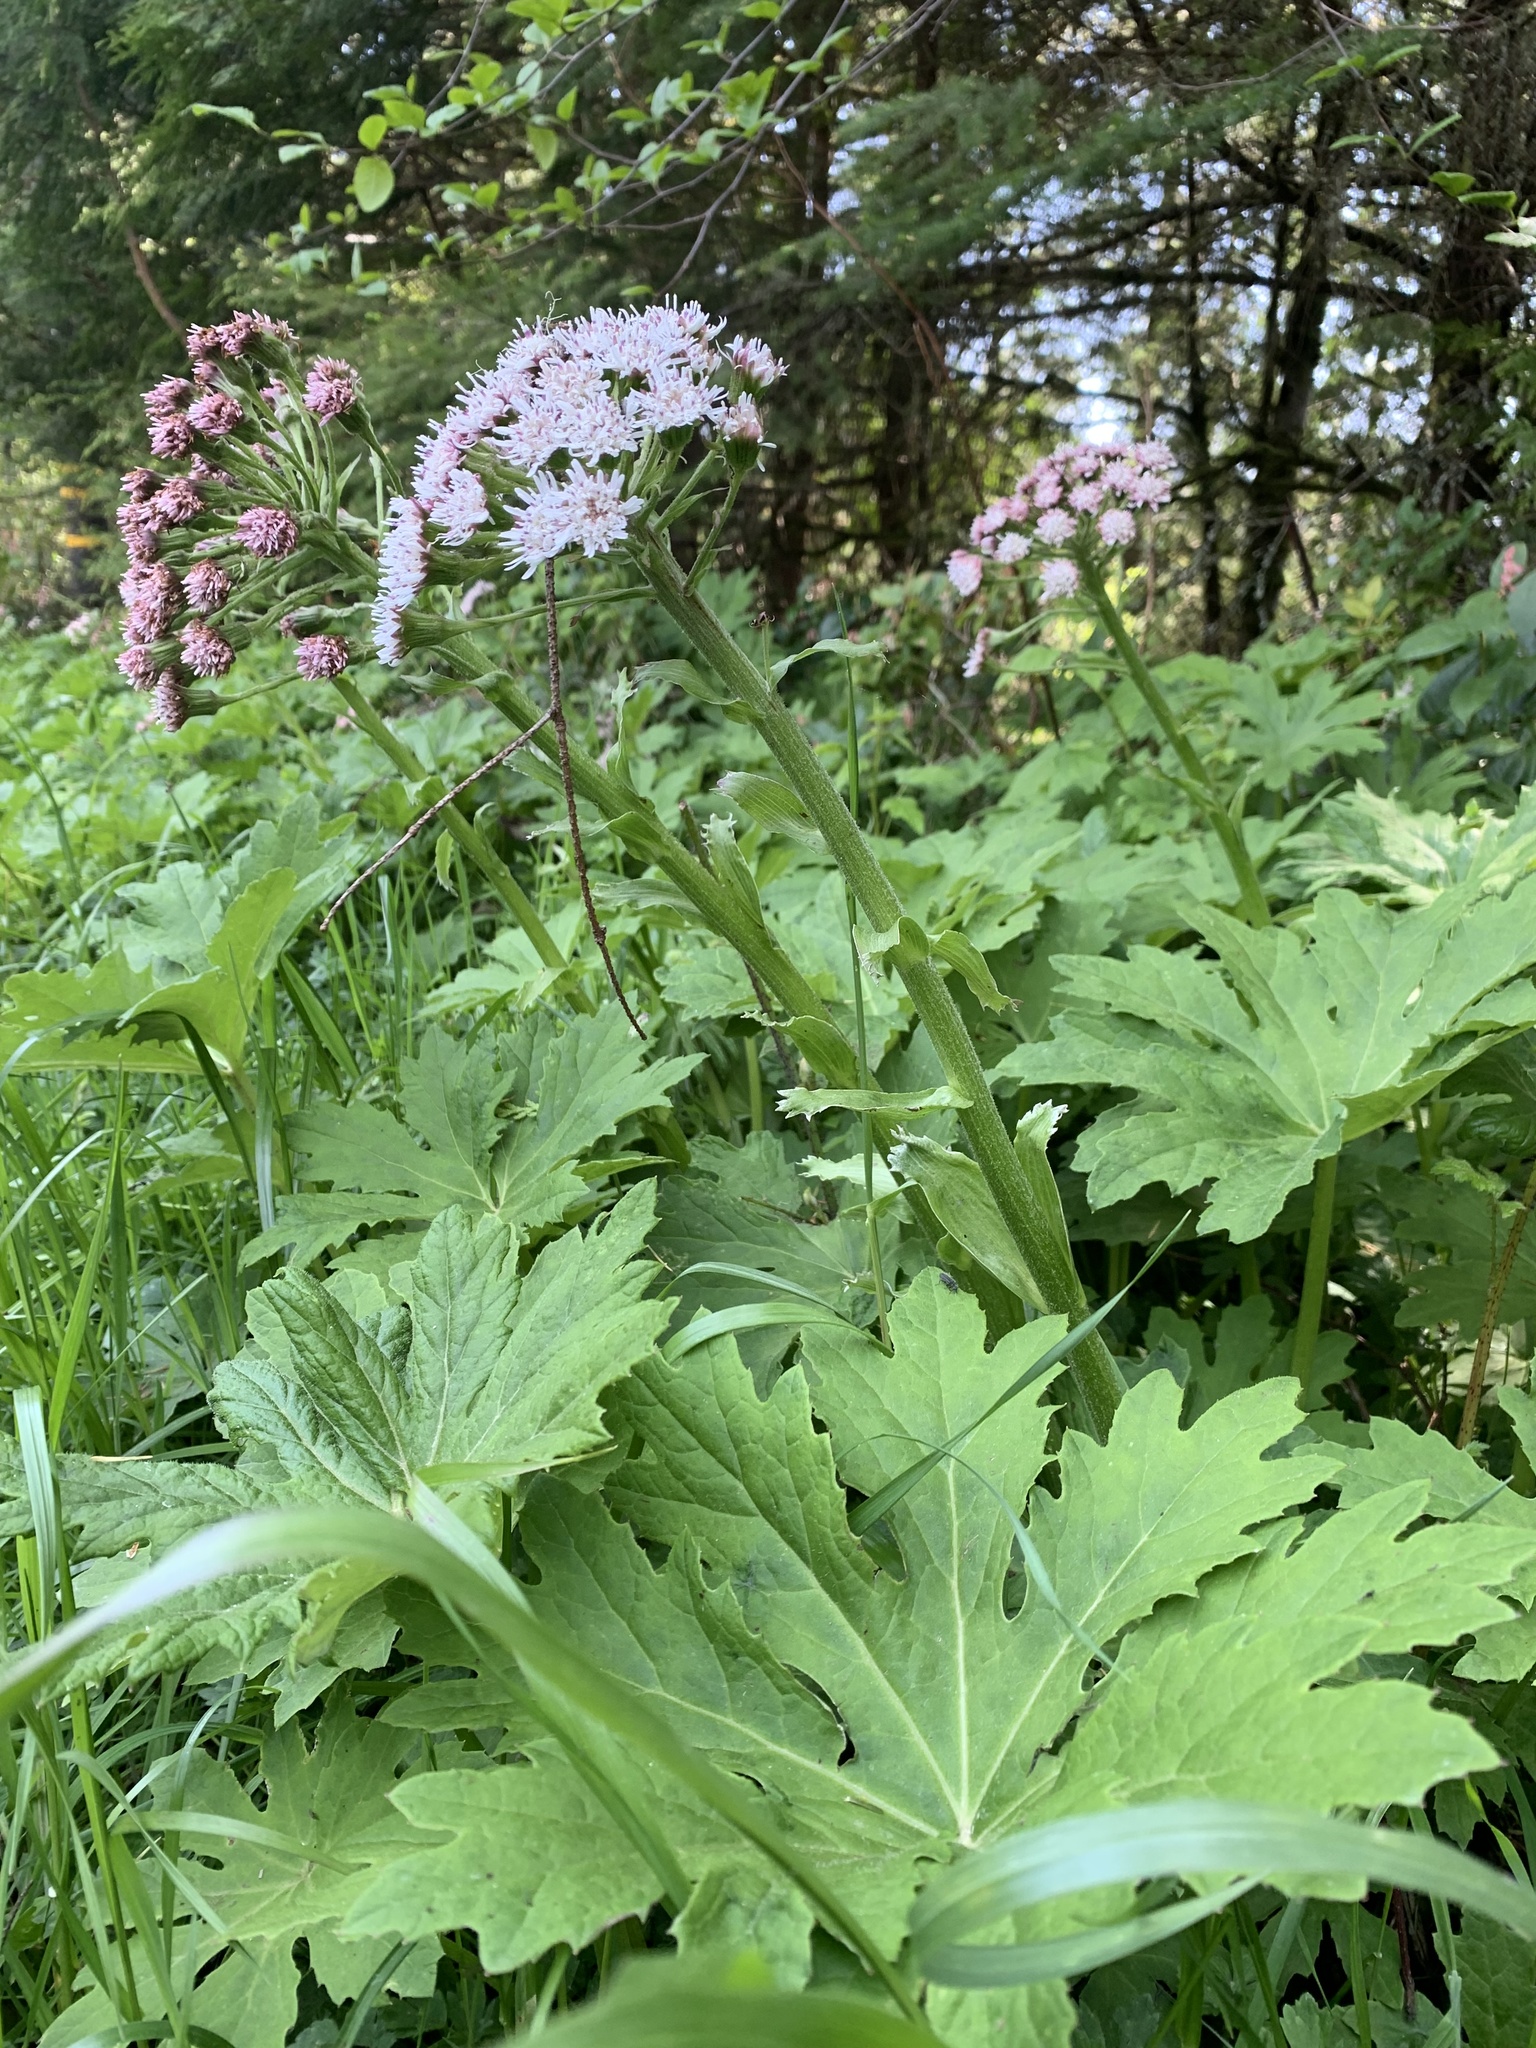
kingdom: Plantae
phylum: Tracheophyta
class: Magnoliopsida
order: Asterales
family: Asteraceae
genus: Petasites
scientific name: Petasites frigidus
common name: Arctic butterbur
